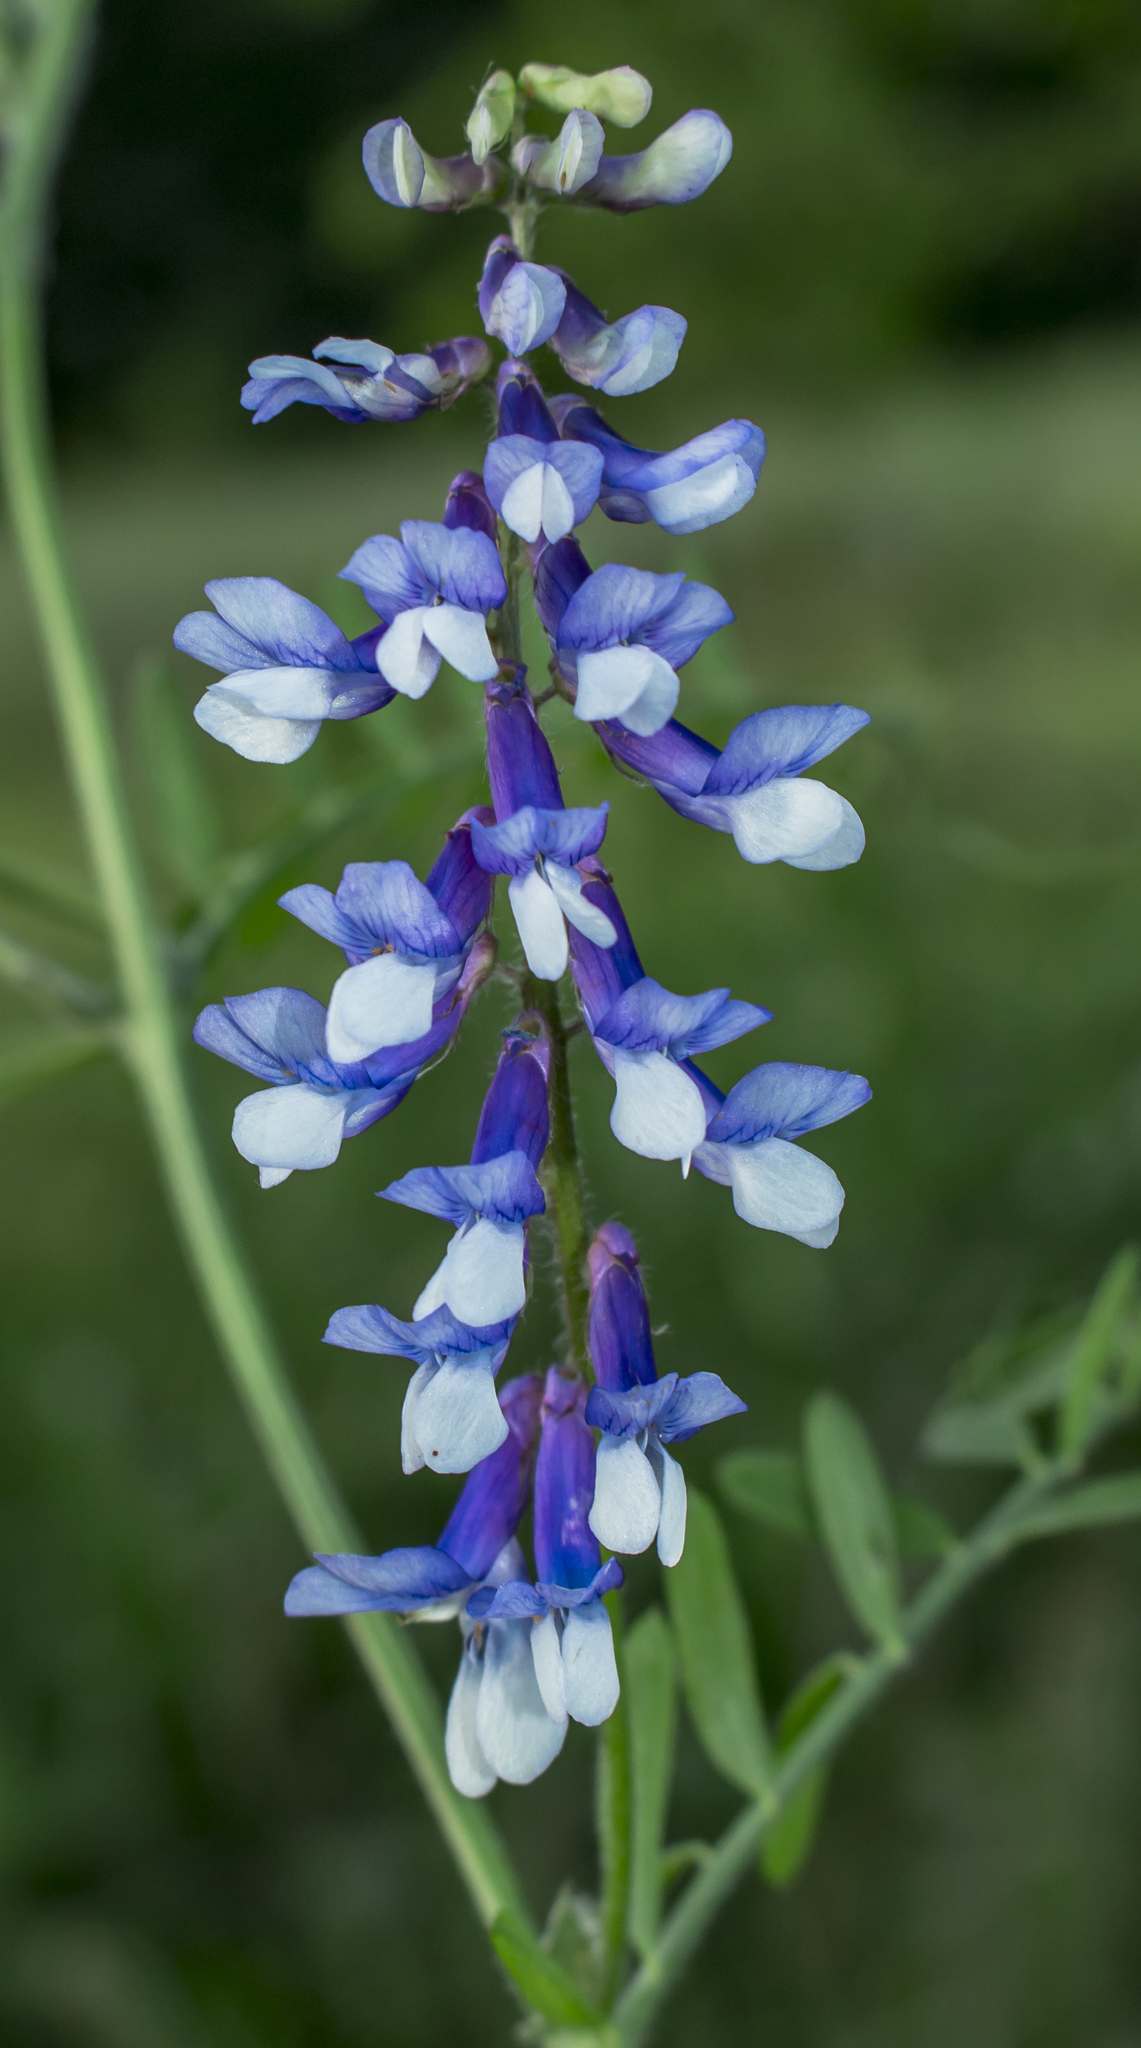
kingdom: Plantae
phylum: Tracheophyta
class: Magnoliopsida
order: Fabales
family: Fabaceae
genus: Vicia
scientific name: Vicia villosa
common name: Fodder vetch
